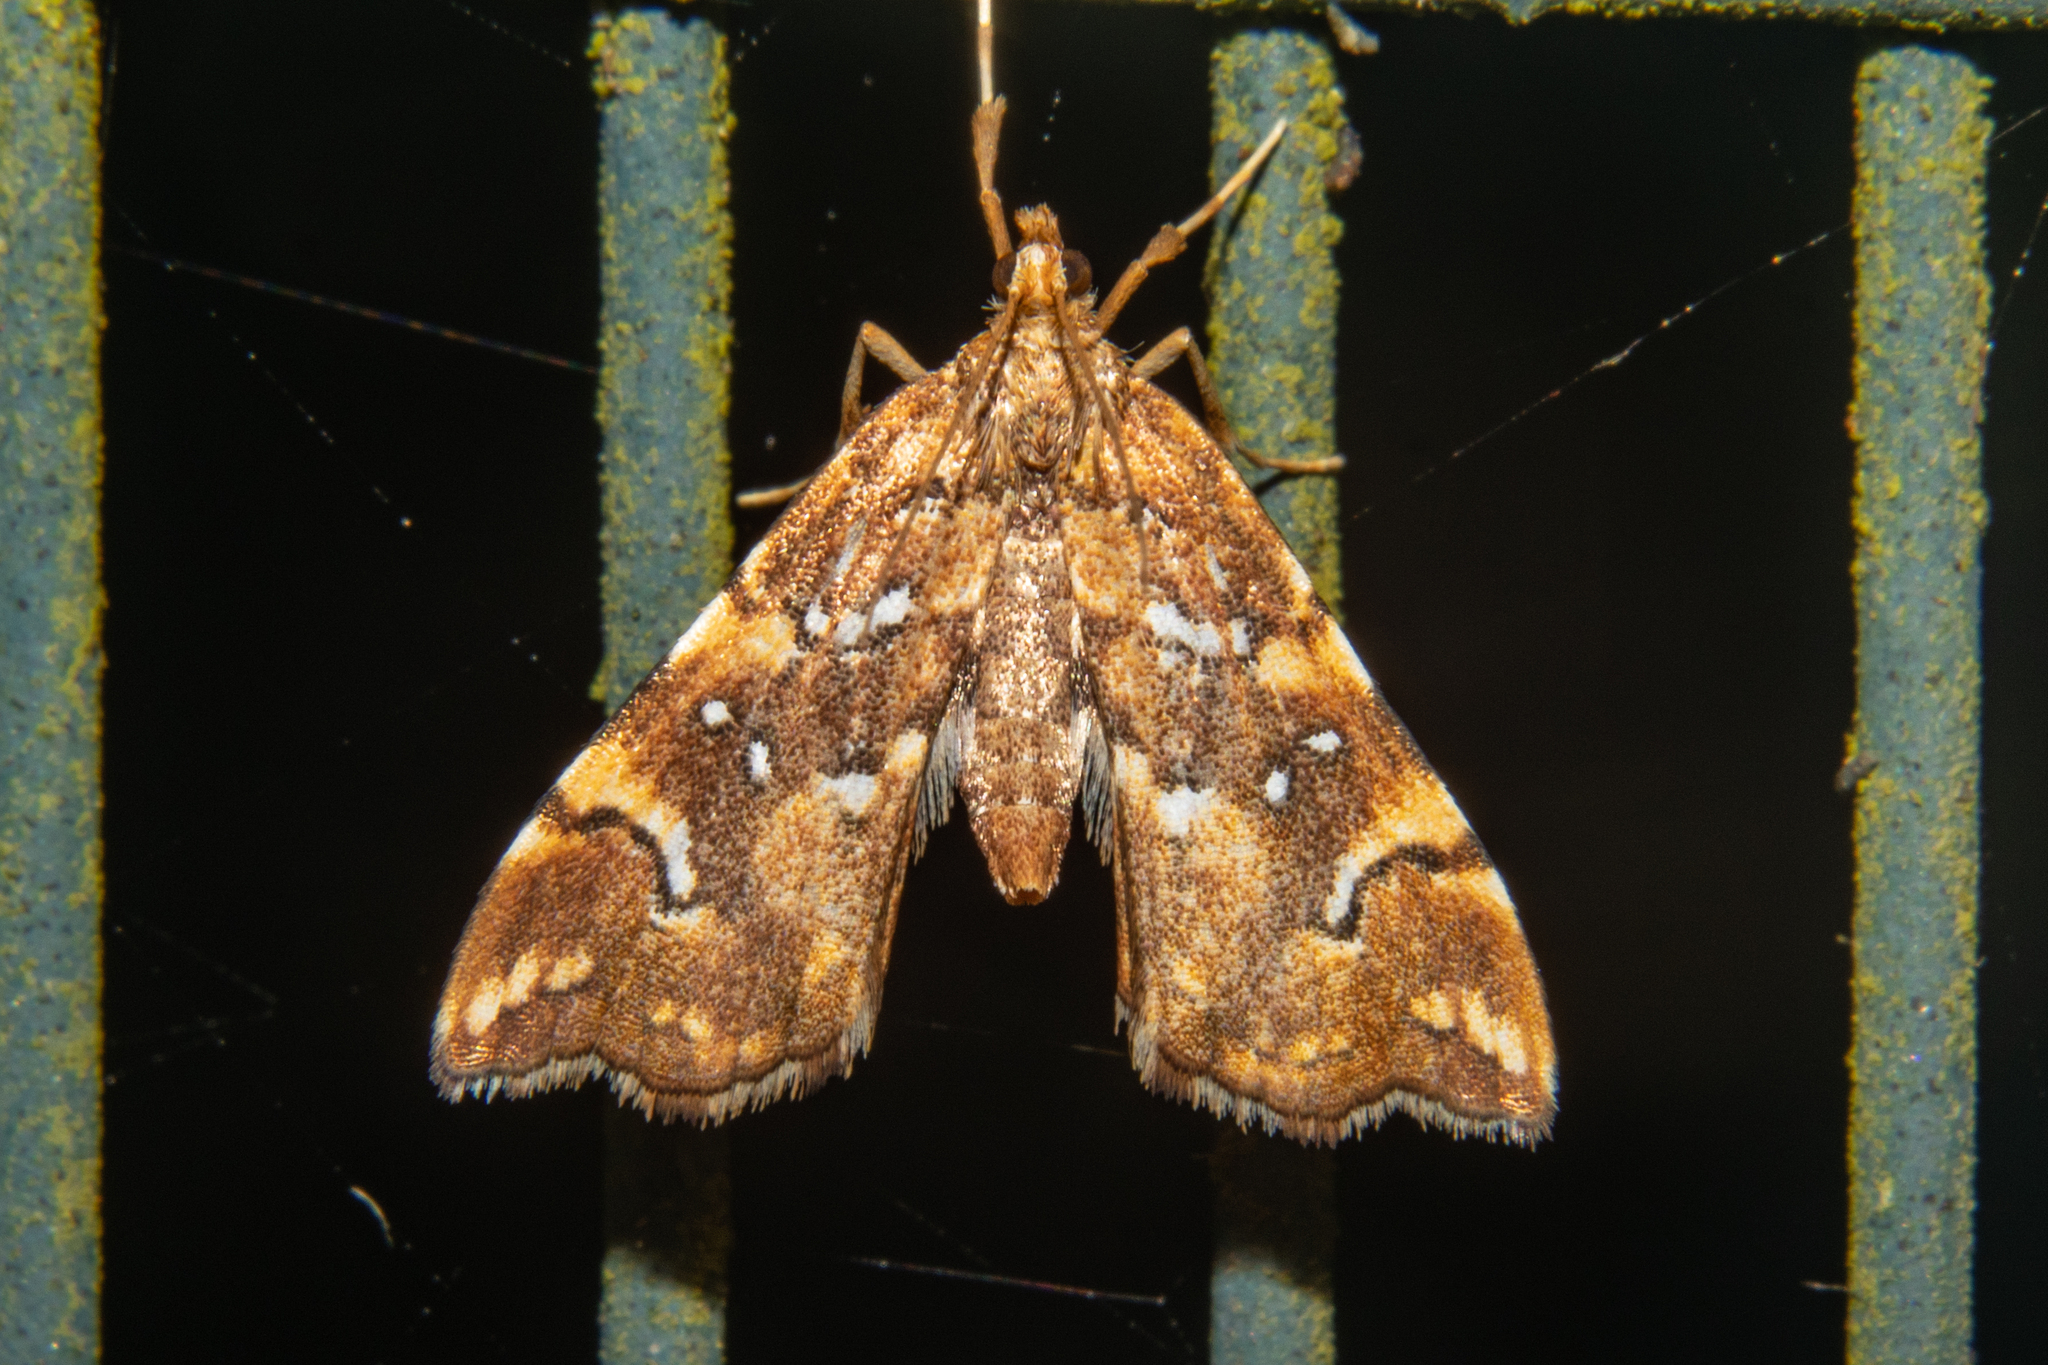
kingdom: Animalia
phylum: Arthropoda
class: Insecta
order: Lepidoptera
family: Pyralidae
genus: Musotima
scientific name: Musotima nitidalis
